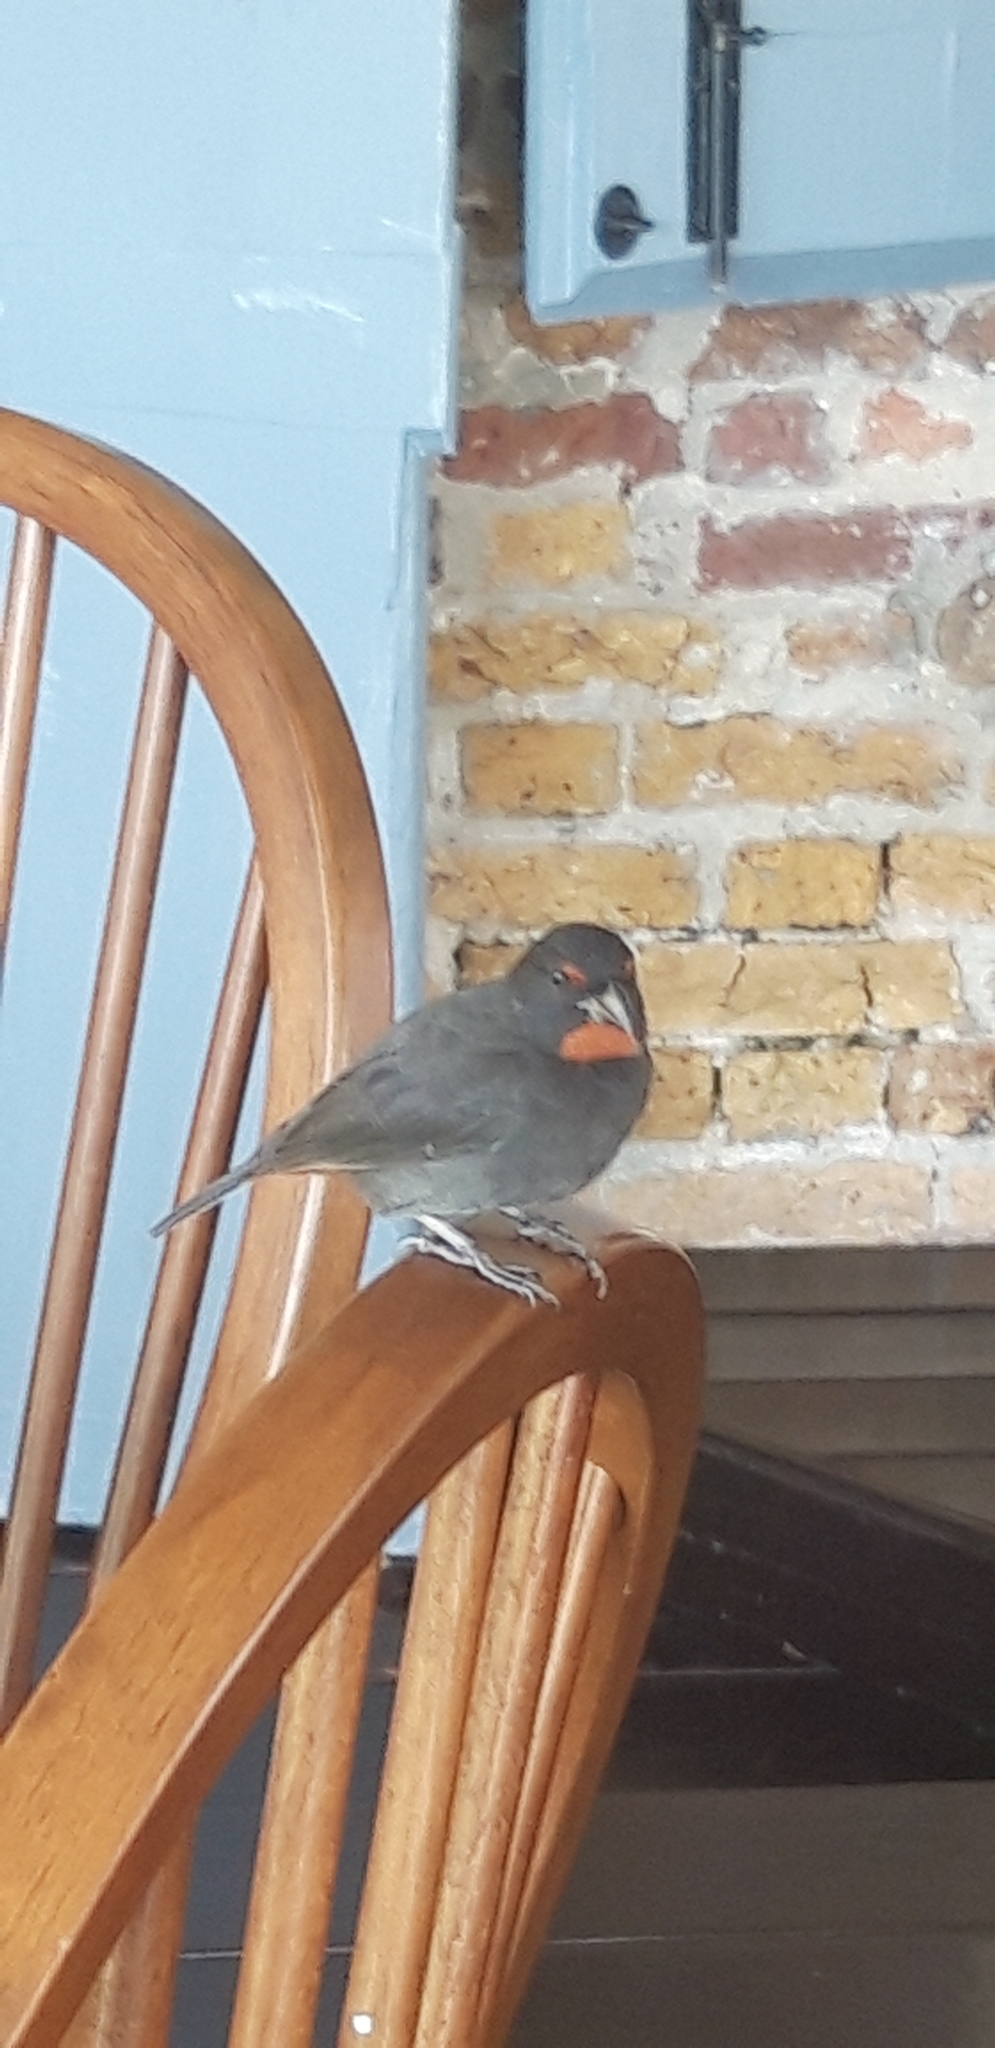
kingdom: Animalia
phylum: Chordata
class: Aves
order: Passeriformes
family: Thraupidae
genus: Loxigilla
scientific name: Loxigilla noctis
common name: Lesser antillean bullfinch
